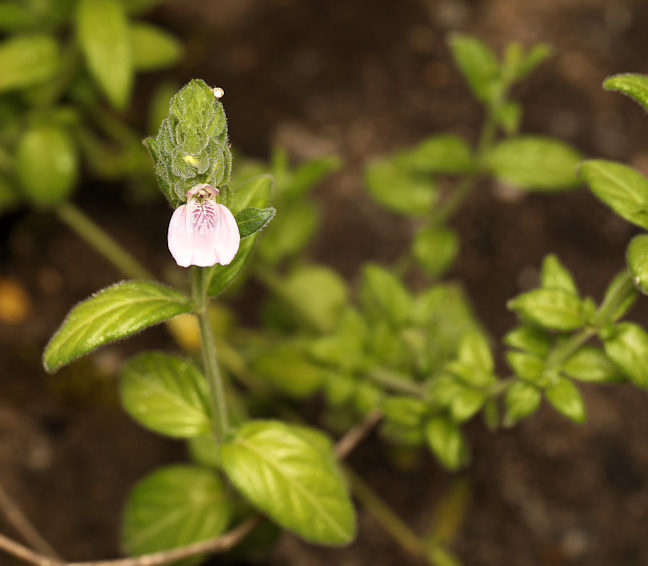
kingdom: Plantae
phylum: Tracheophyta
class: Magnoliopsida
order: Lamiales
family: Acanthaceae
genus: Justicia
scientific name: Justicia protracta
